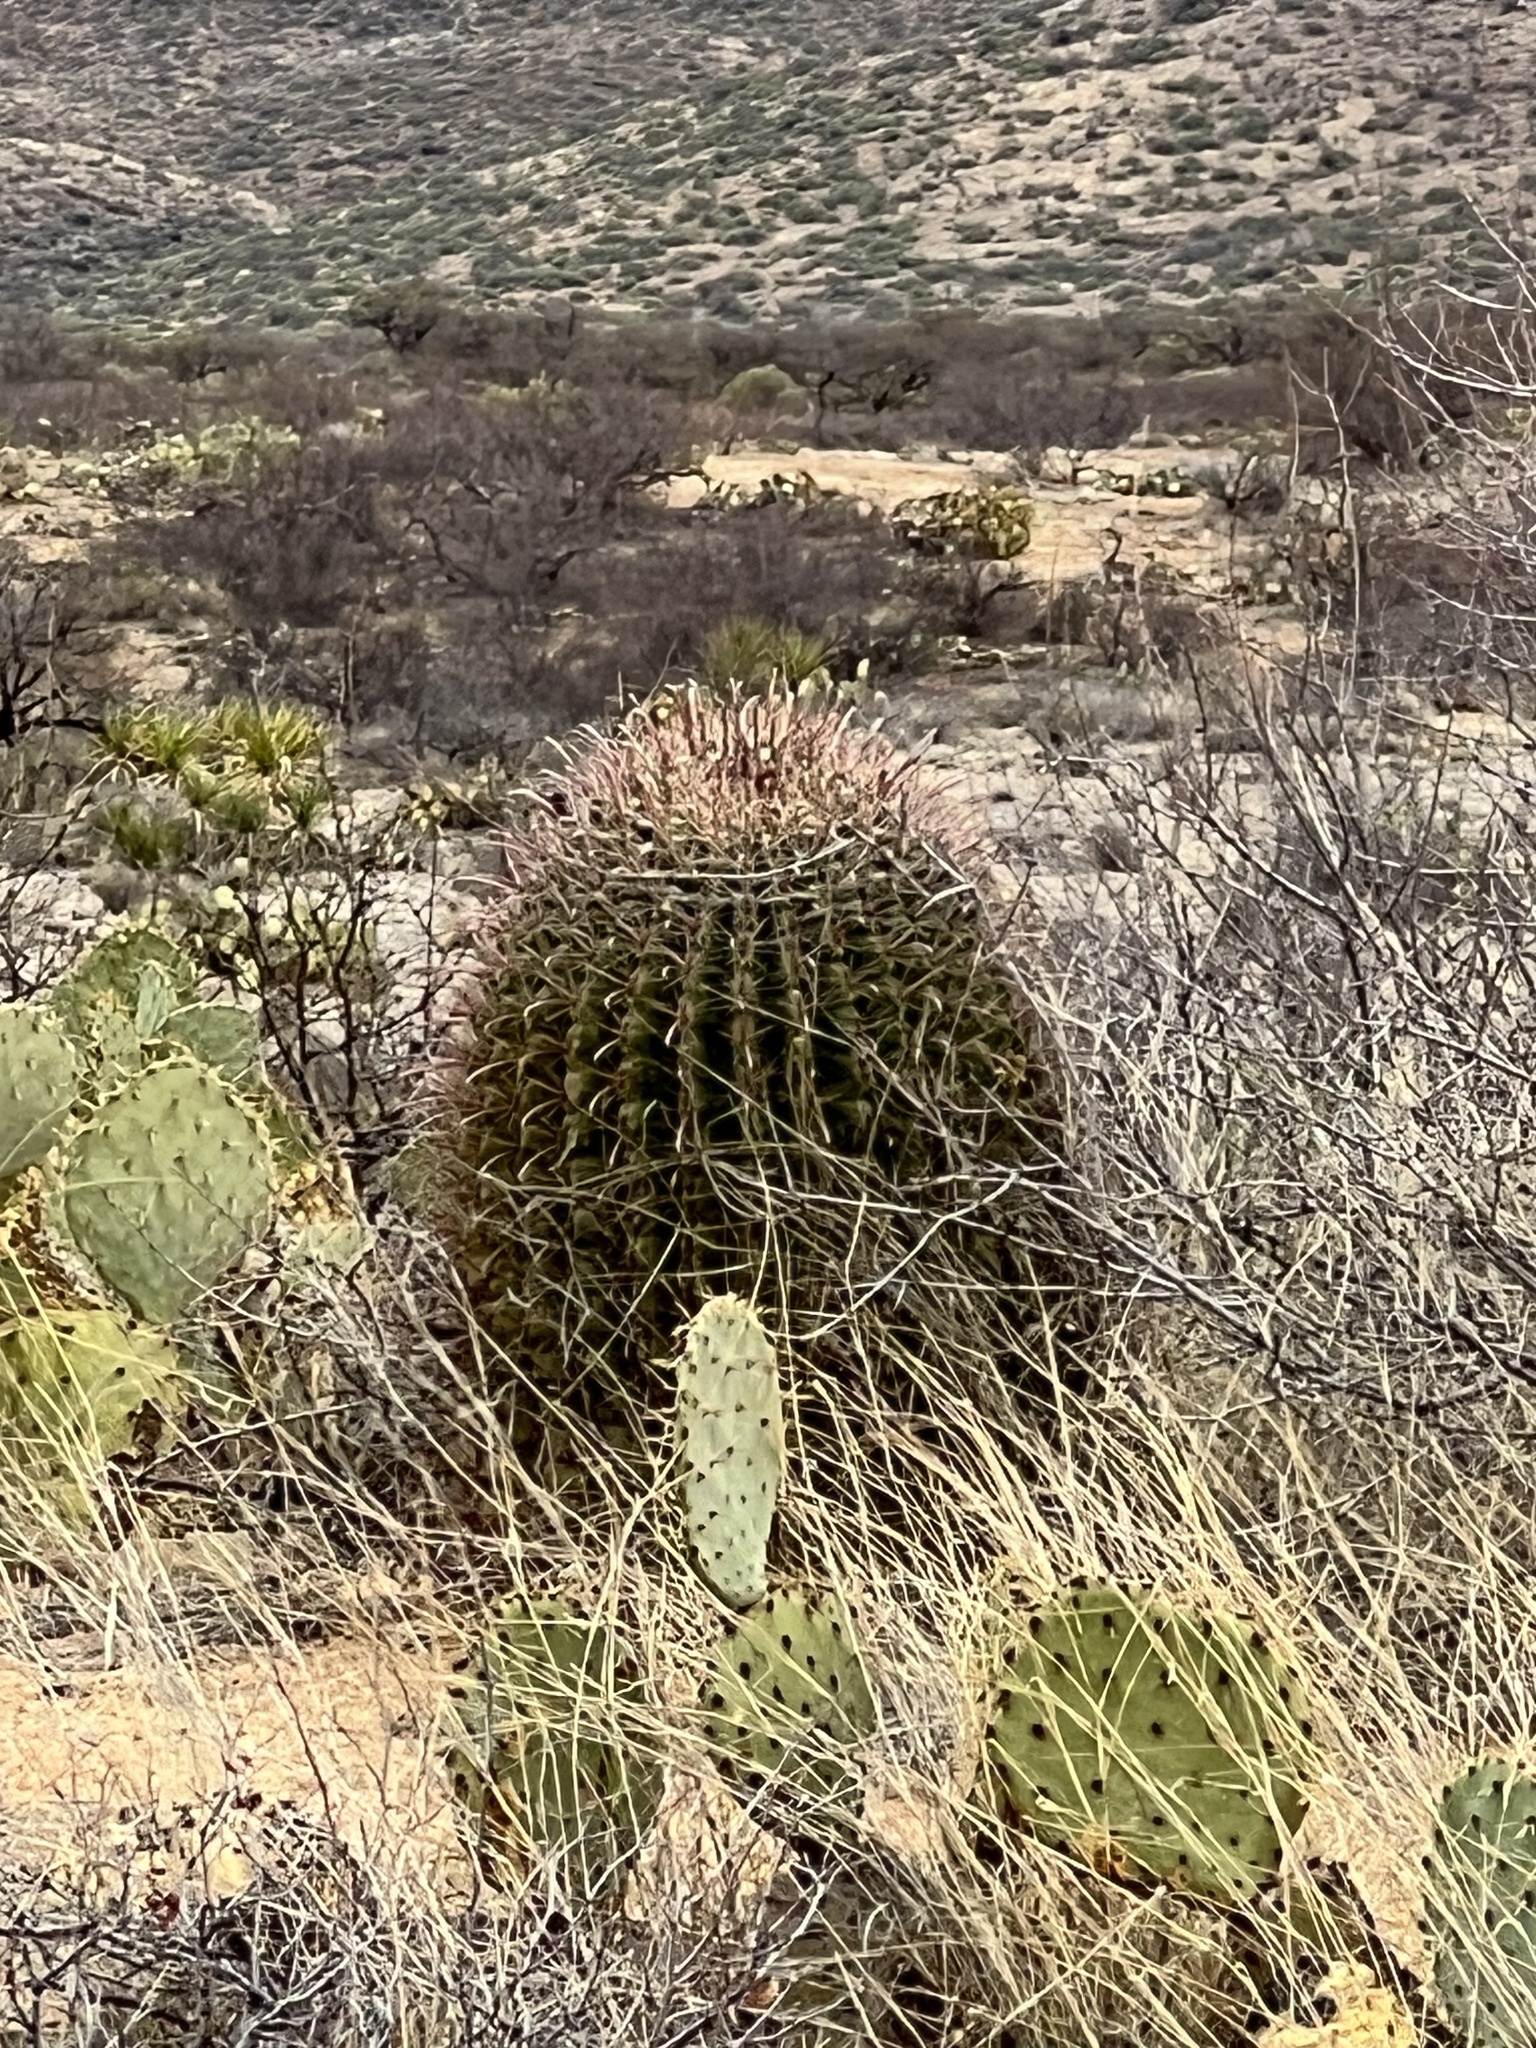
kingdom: Plantae
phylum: Tracheophyta
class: Magnoliopsida
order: Caryophyllales
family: Cactaceae
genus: Ferocactus
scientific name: Ferocactus wislizeni
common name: Candy barrel cactus
